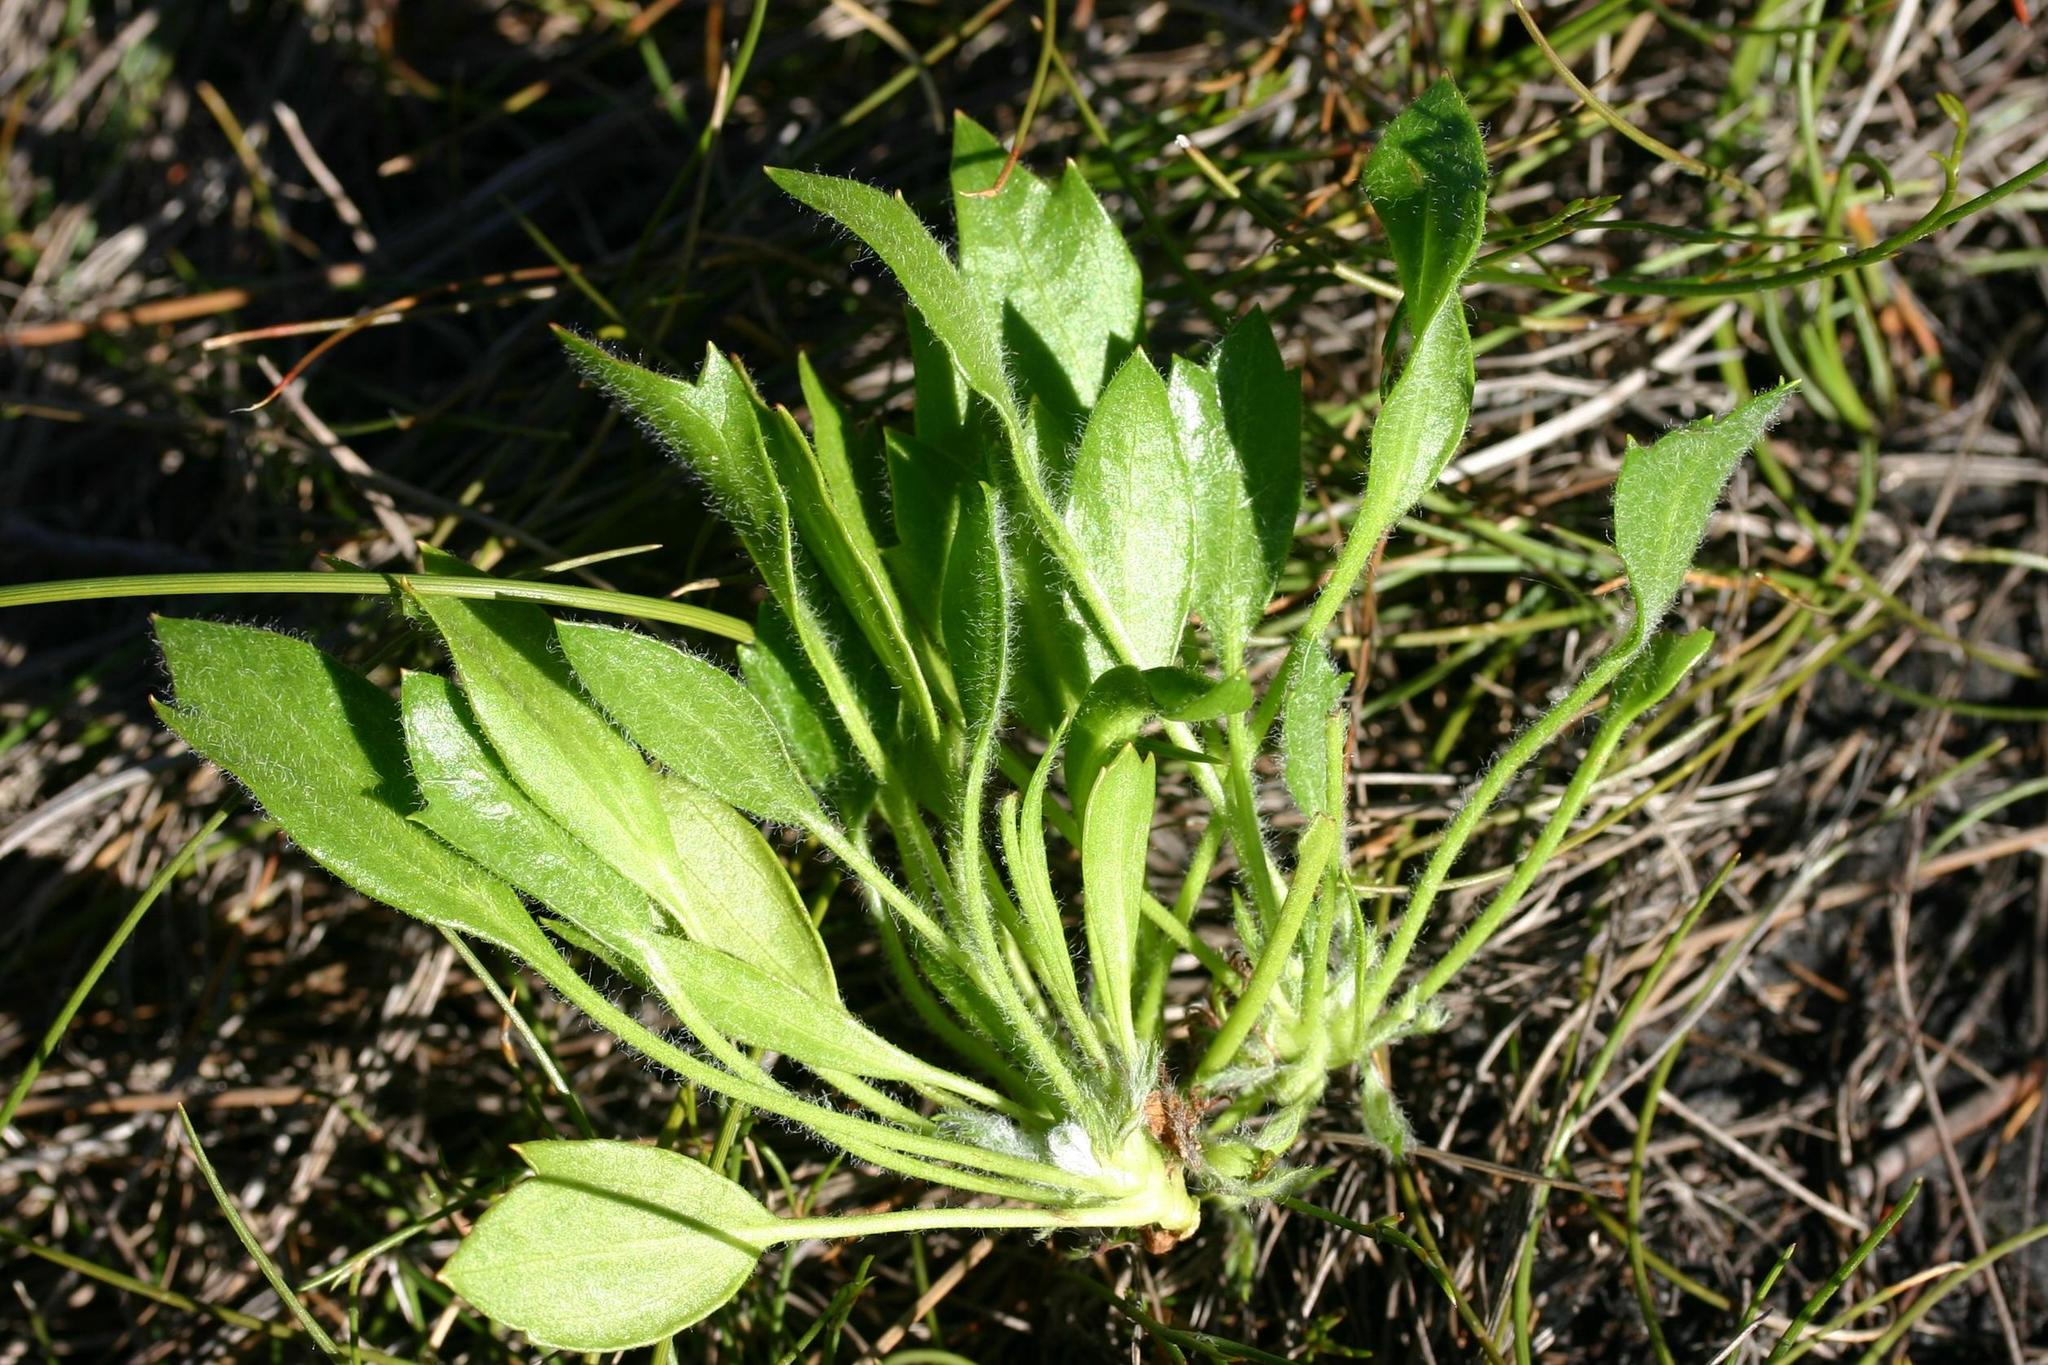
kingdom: Plantae
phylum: Tracheophyta
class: Magnoliopsida
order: Apiales
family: Apiaceae
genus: Centella
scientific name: Centella fourcadei
